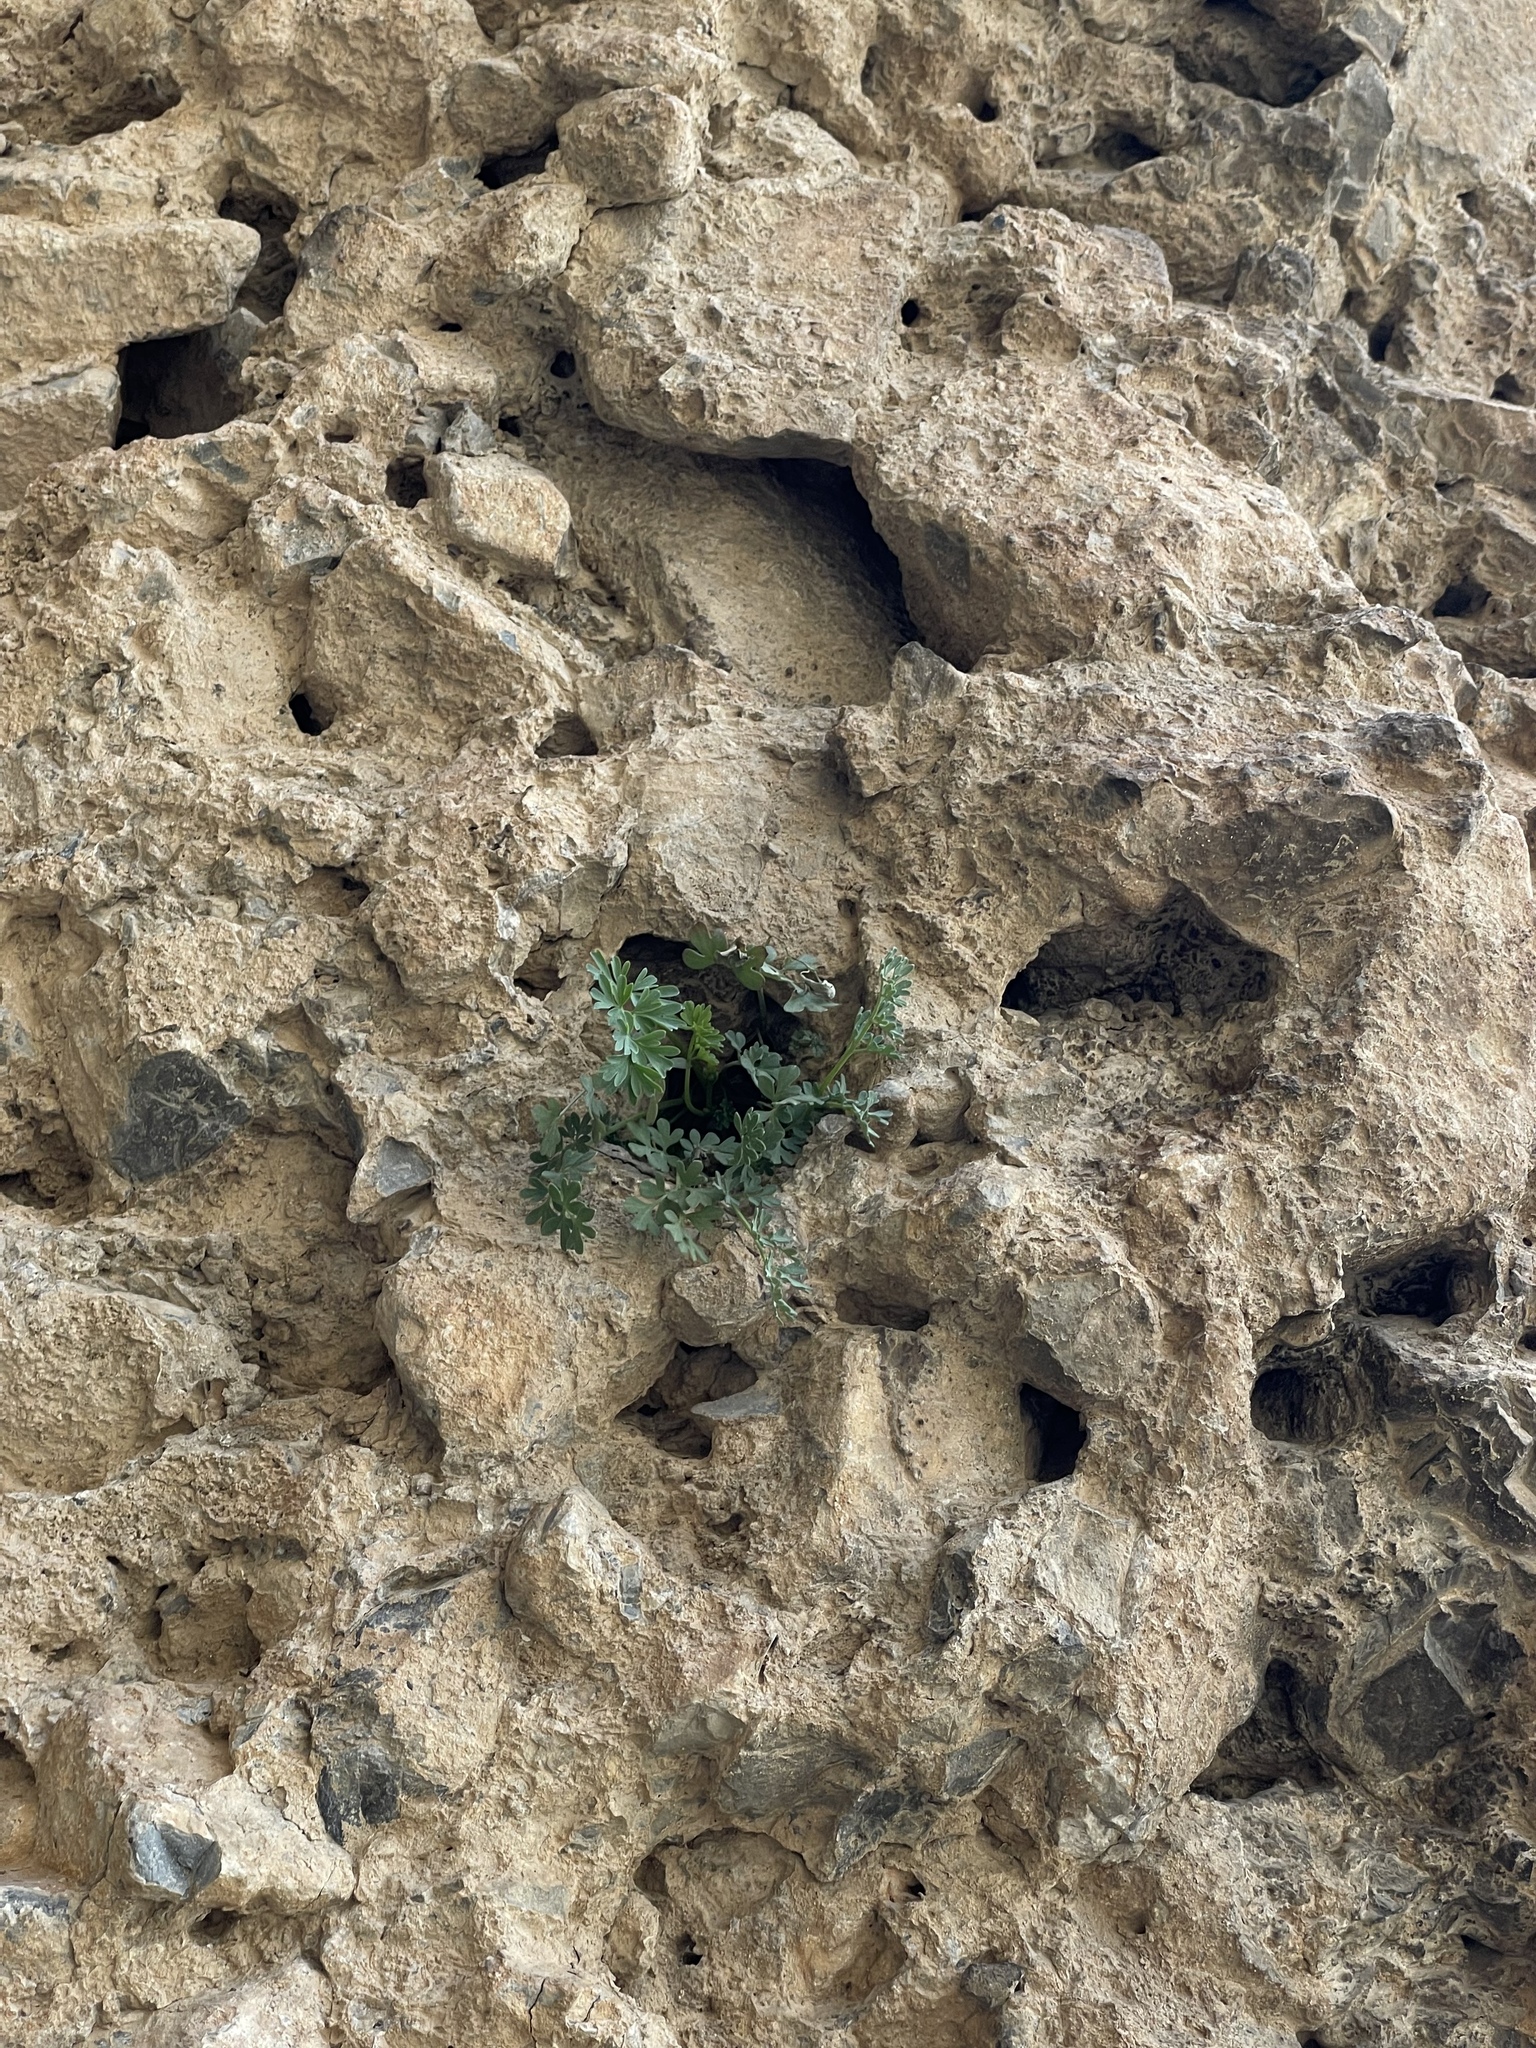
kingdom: Plantae
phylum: Tracheophyta
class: Magnoliopsida
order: Ranunculales
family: Papaveraceae
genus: Corydalis
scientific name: Corydalis fangshanensis
